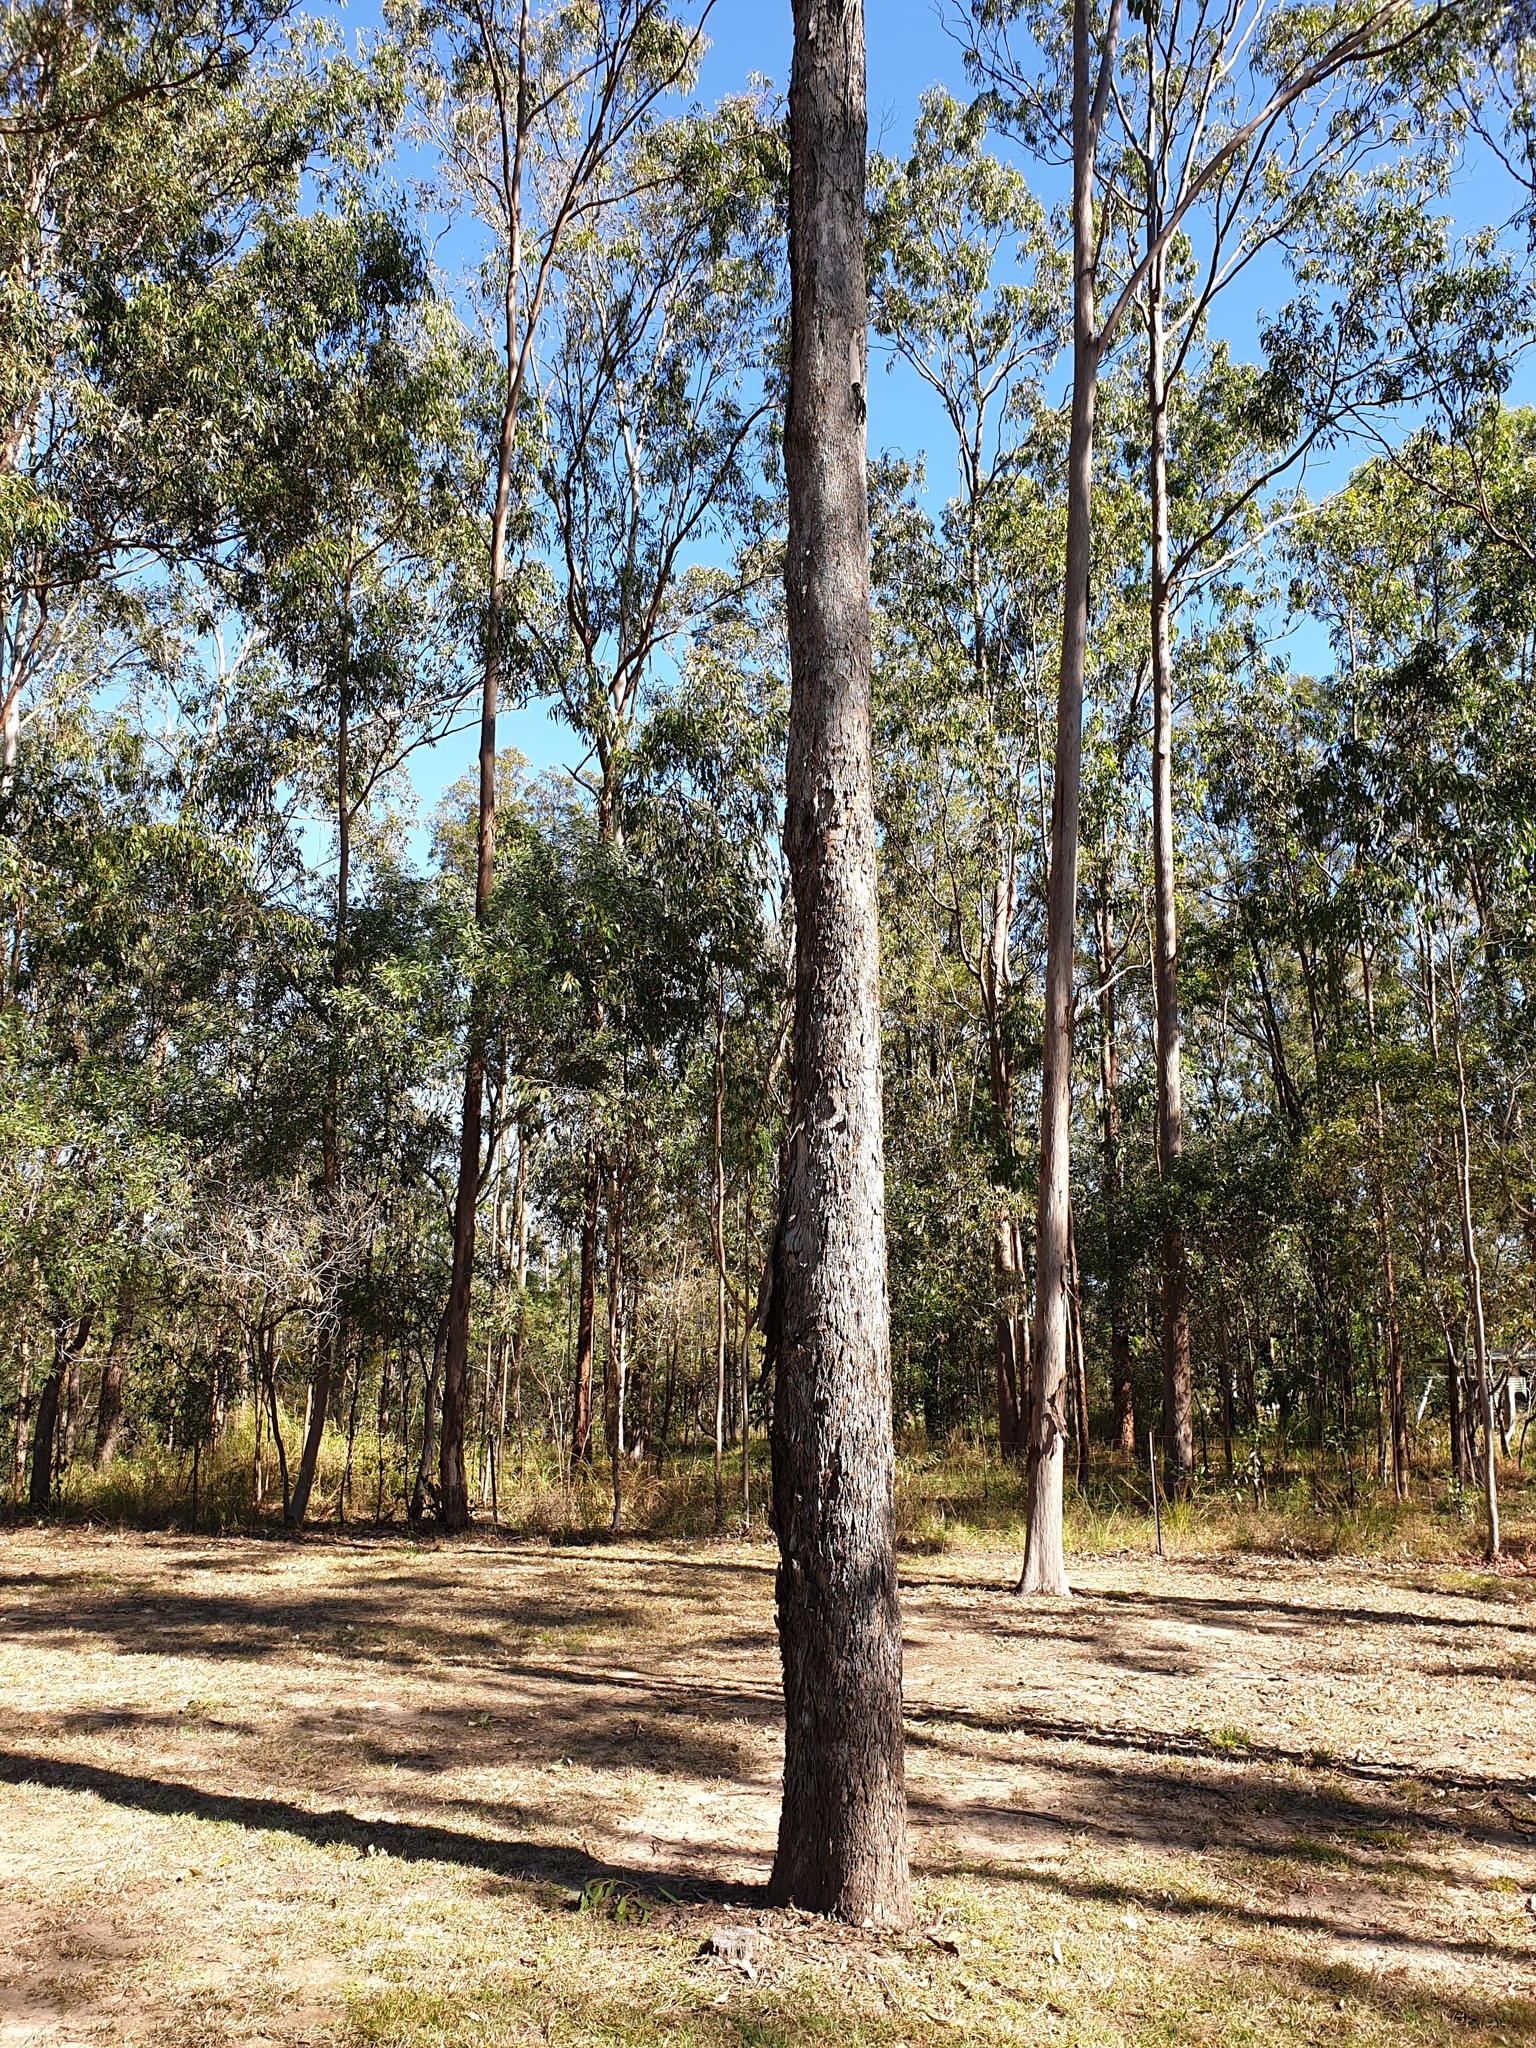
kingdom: Plantae
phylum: Tracheophyta
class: Magnoliopsida
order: Myrtales
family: Myrtaceae
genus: Eucalyptus
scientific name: Eucalyptus moluccana
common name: Grey-box
